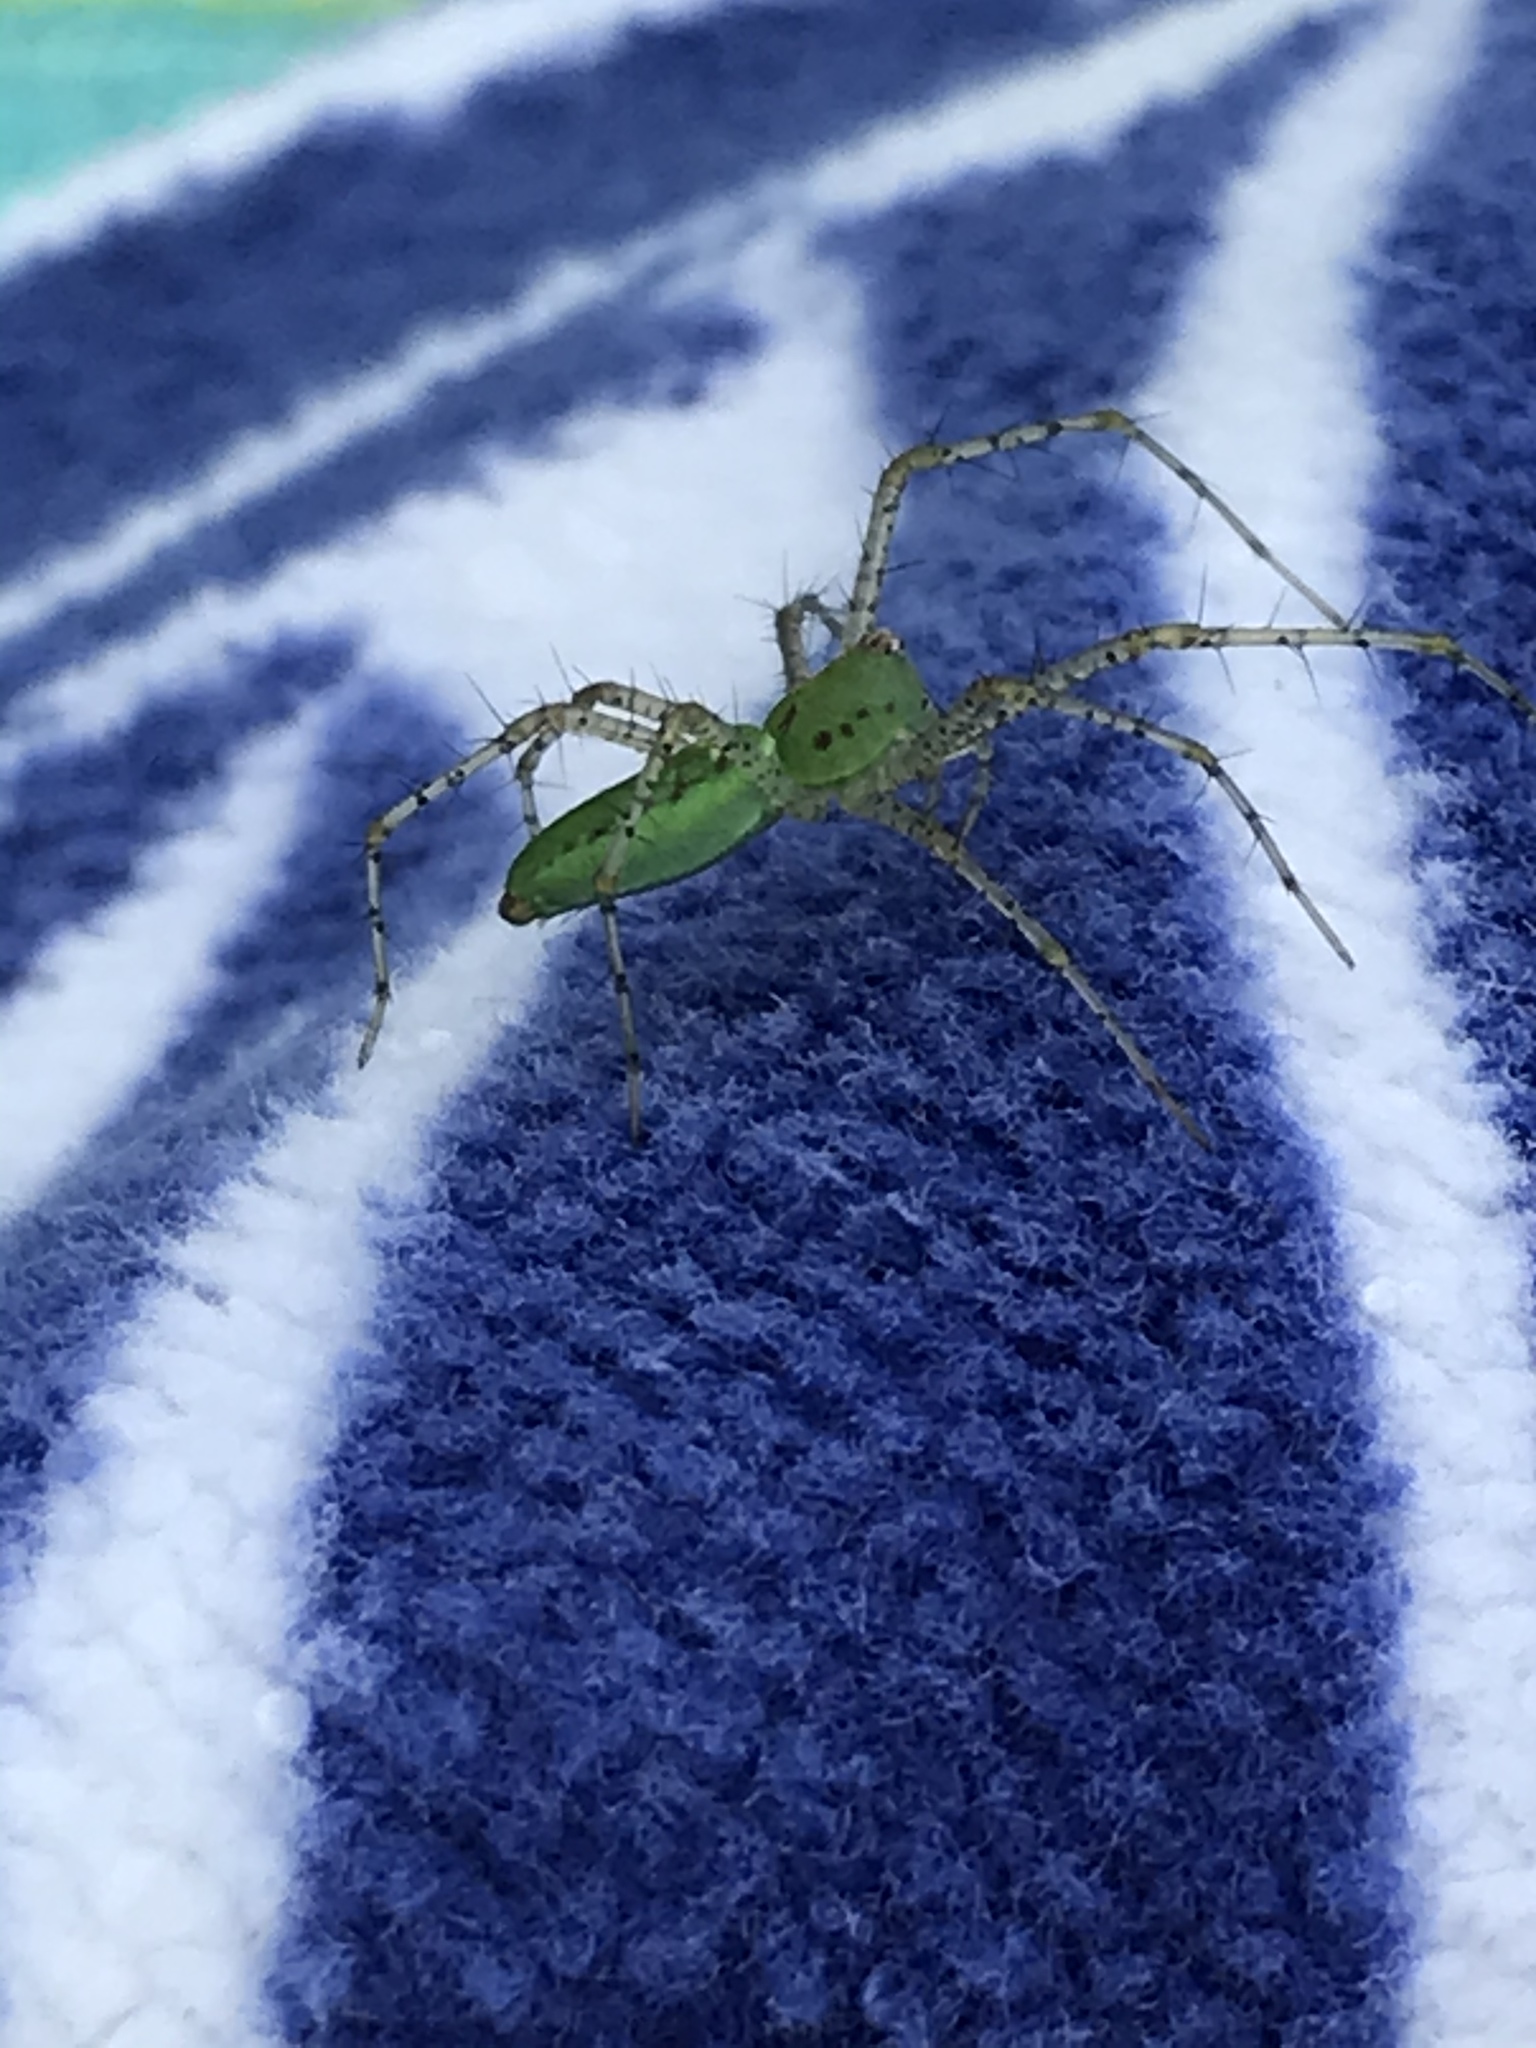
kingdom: Animalia
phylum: Arthropoda
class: Arachnida
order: Araneae
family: Oxyopidae
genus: Peucetia
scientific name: Peucetia viridans
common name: Lynx spiders
